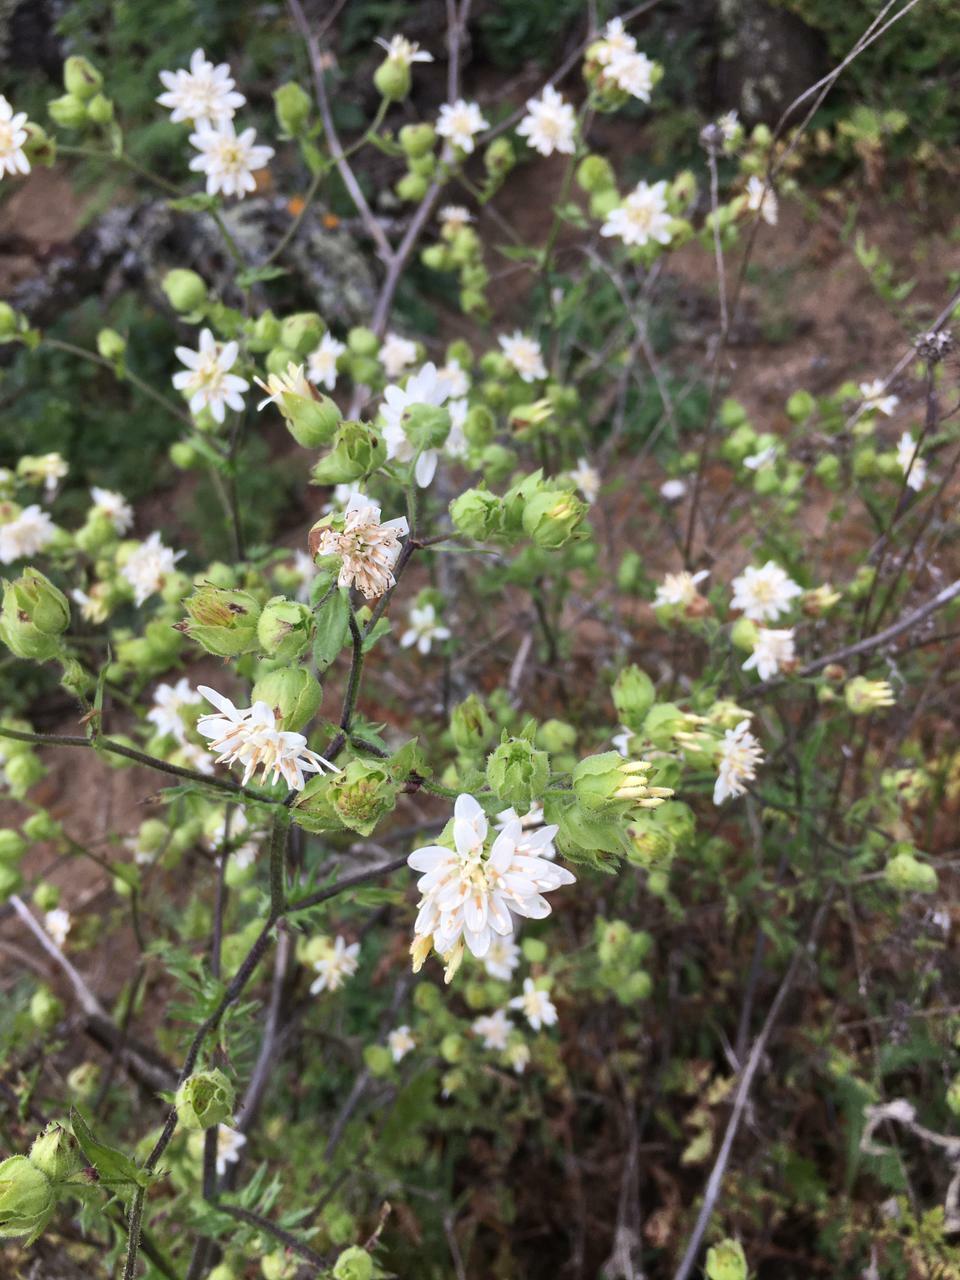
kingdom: Plantae
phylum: Tracheophyta
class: Magnoliopsida
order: Asterales
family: Asteraceae
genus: Moscharia
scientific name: Moscharia pinnatifida
